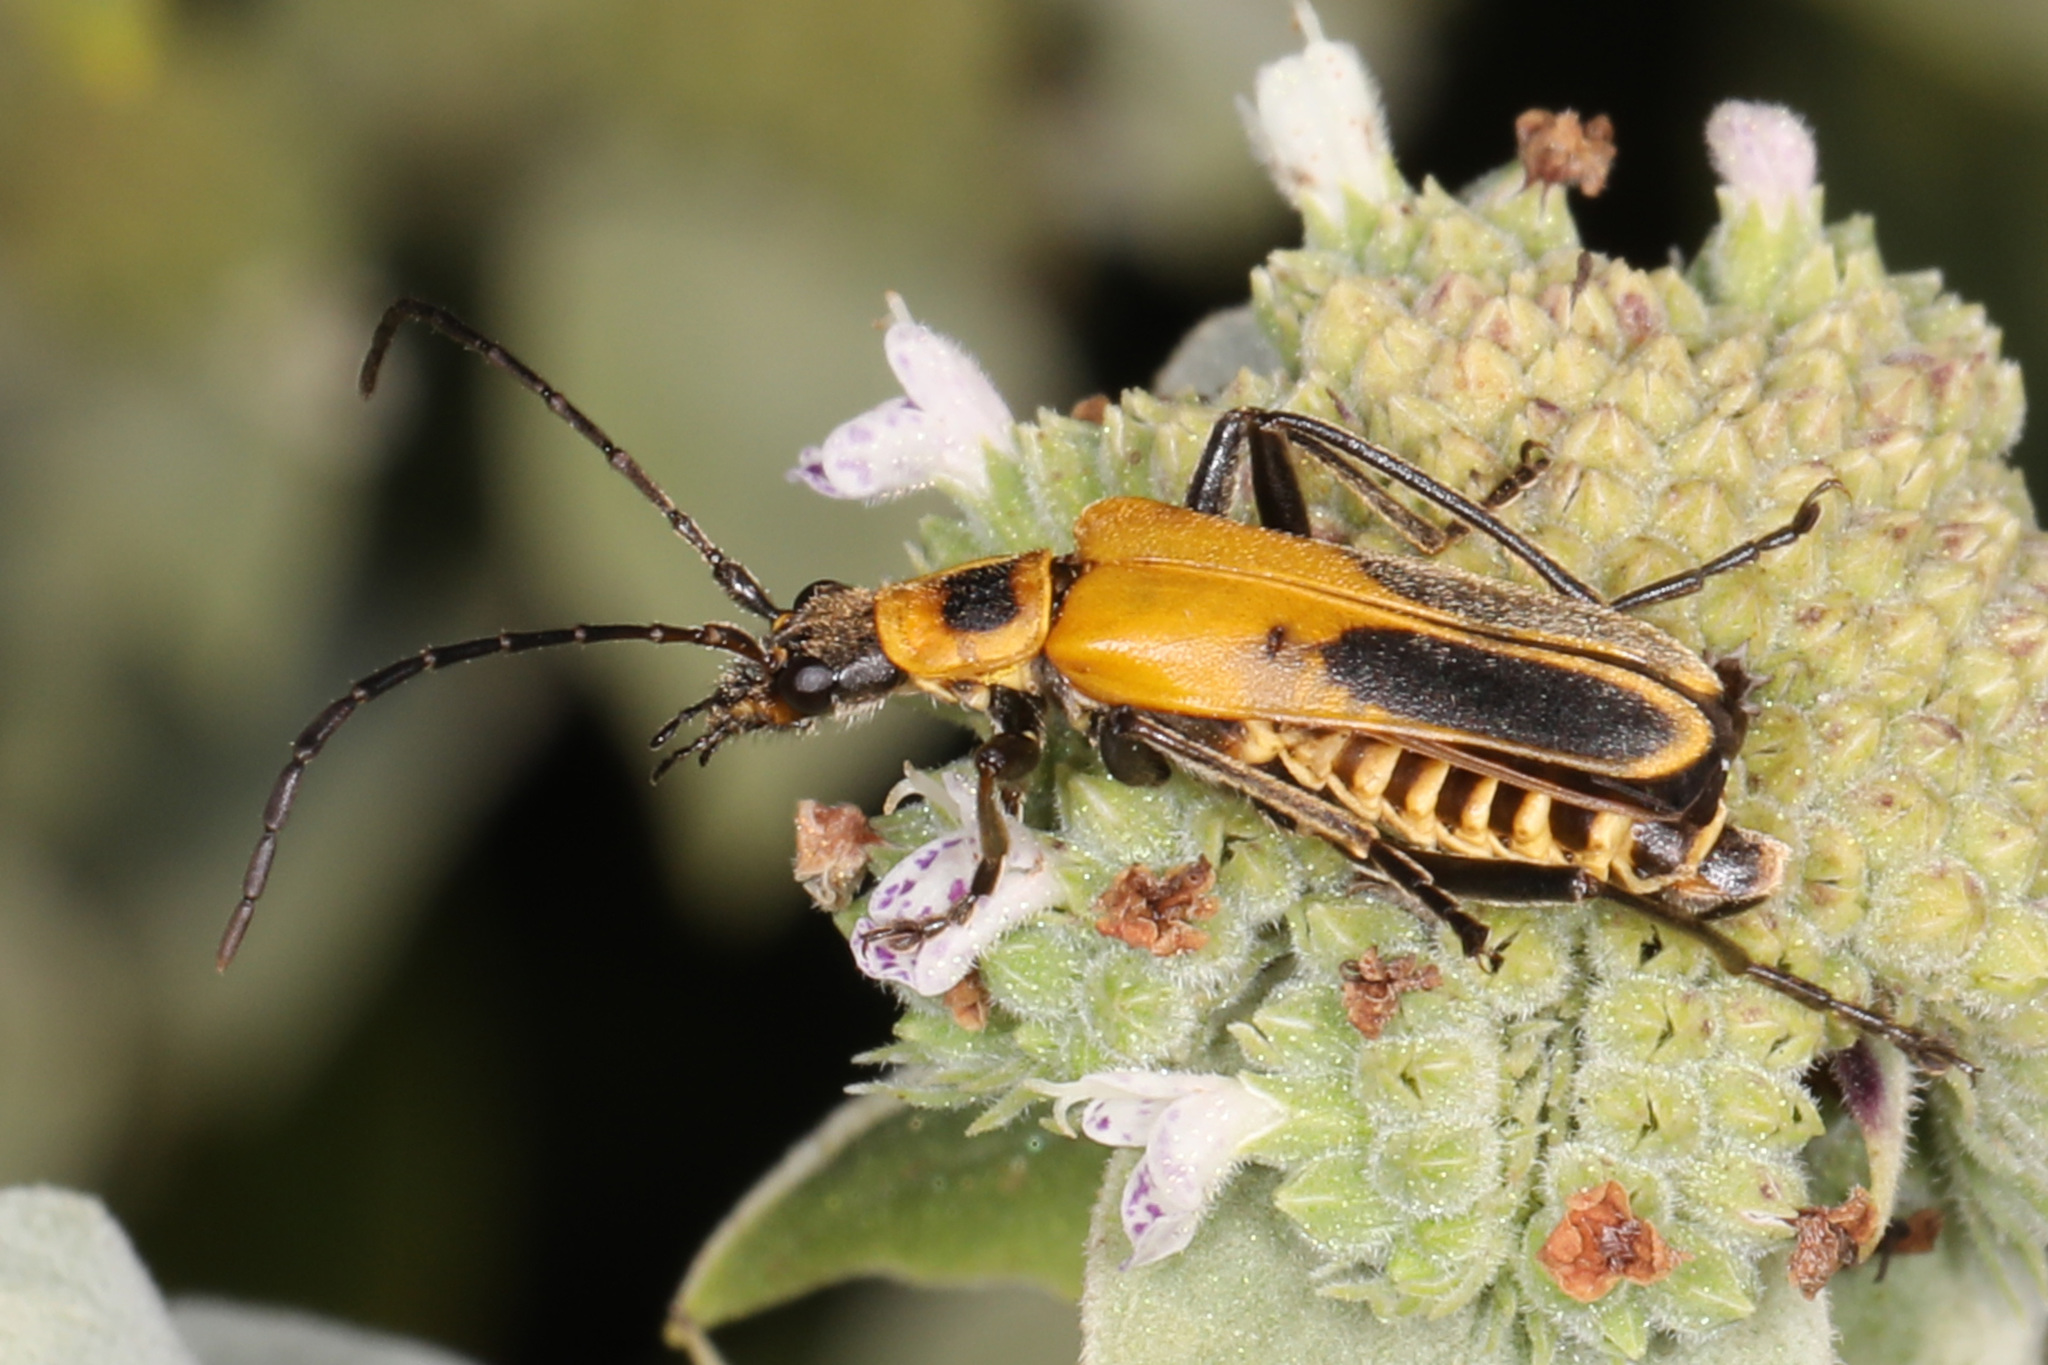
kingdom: Animalia
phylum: Arthropoda
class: Insecta
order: Coleoptera
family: Cantharidae
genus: Chauliognathus
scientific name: Chauliognathus pensylvanicus
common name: Goldenrod soldier beetle
